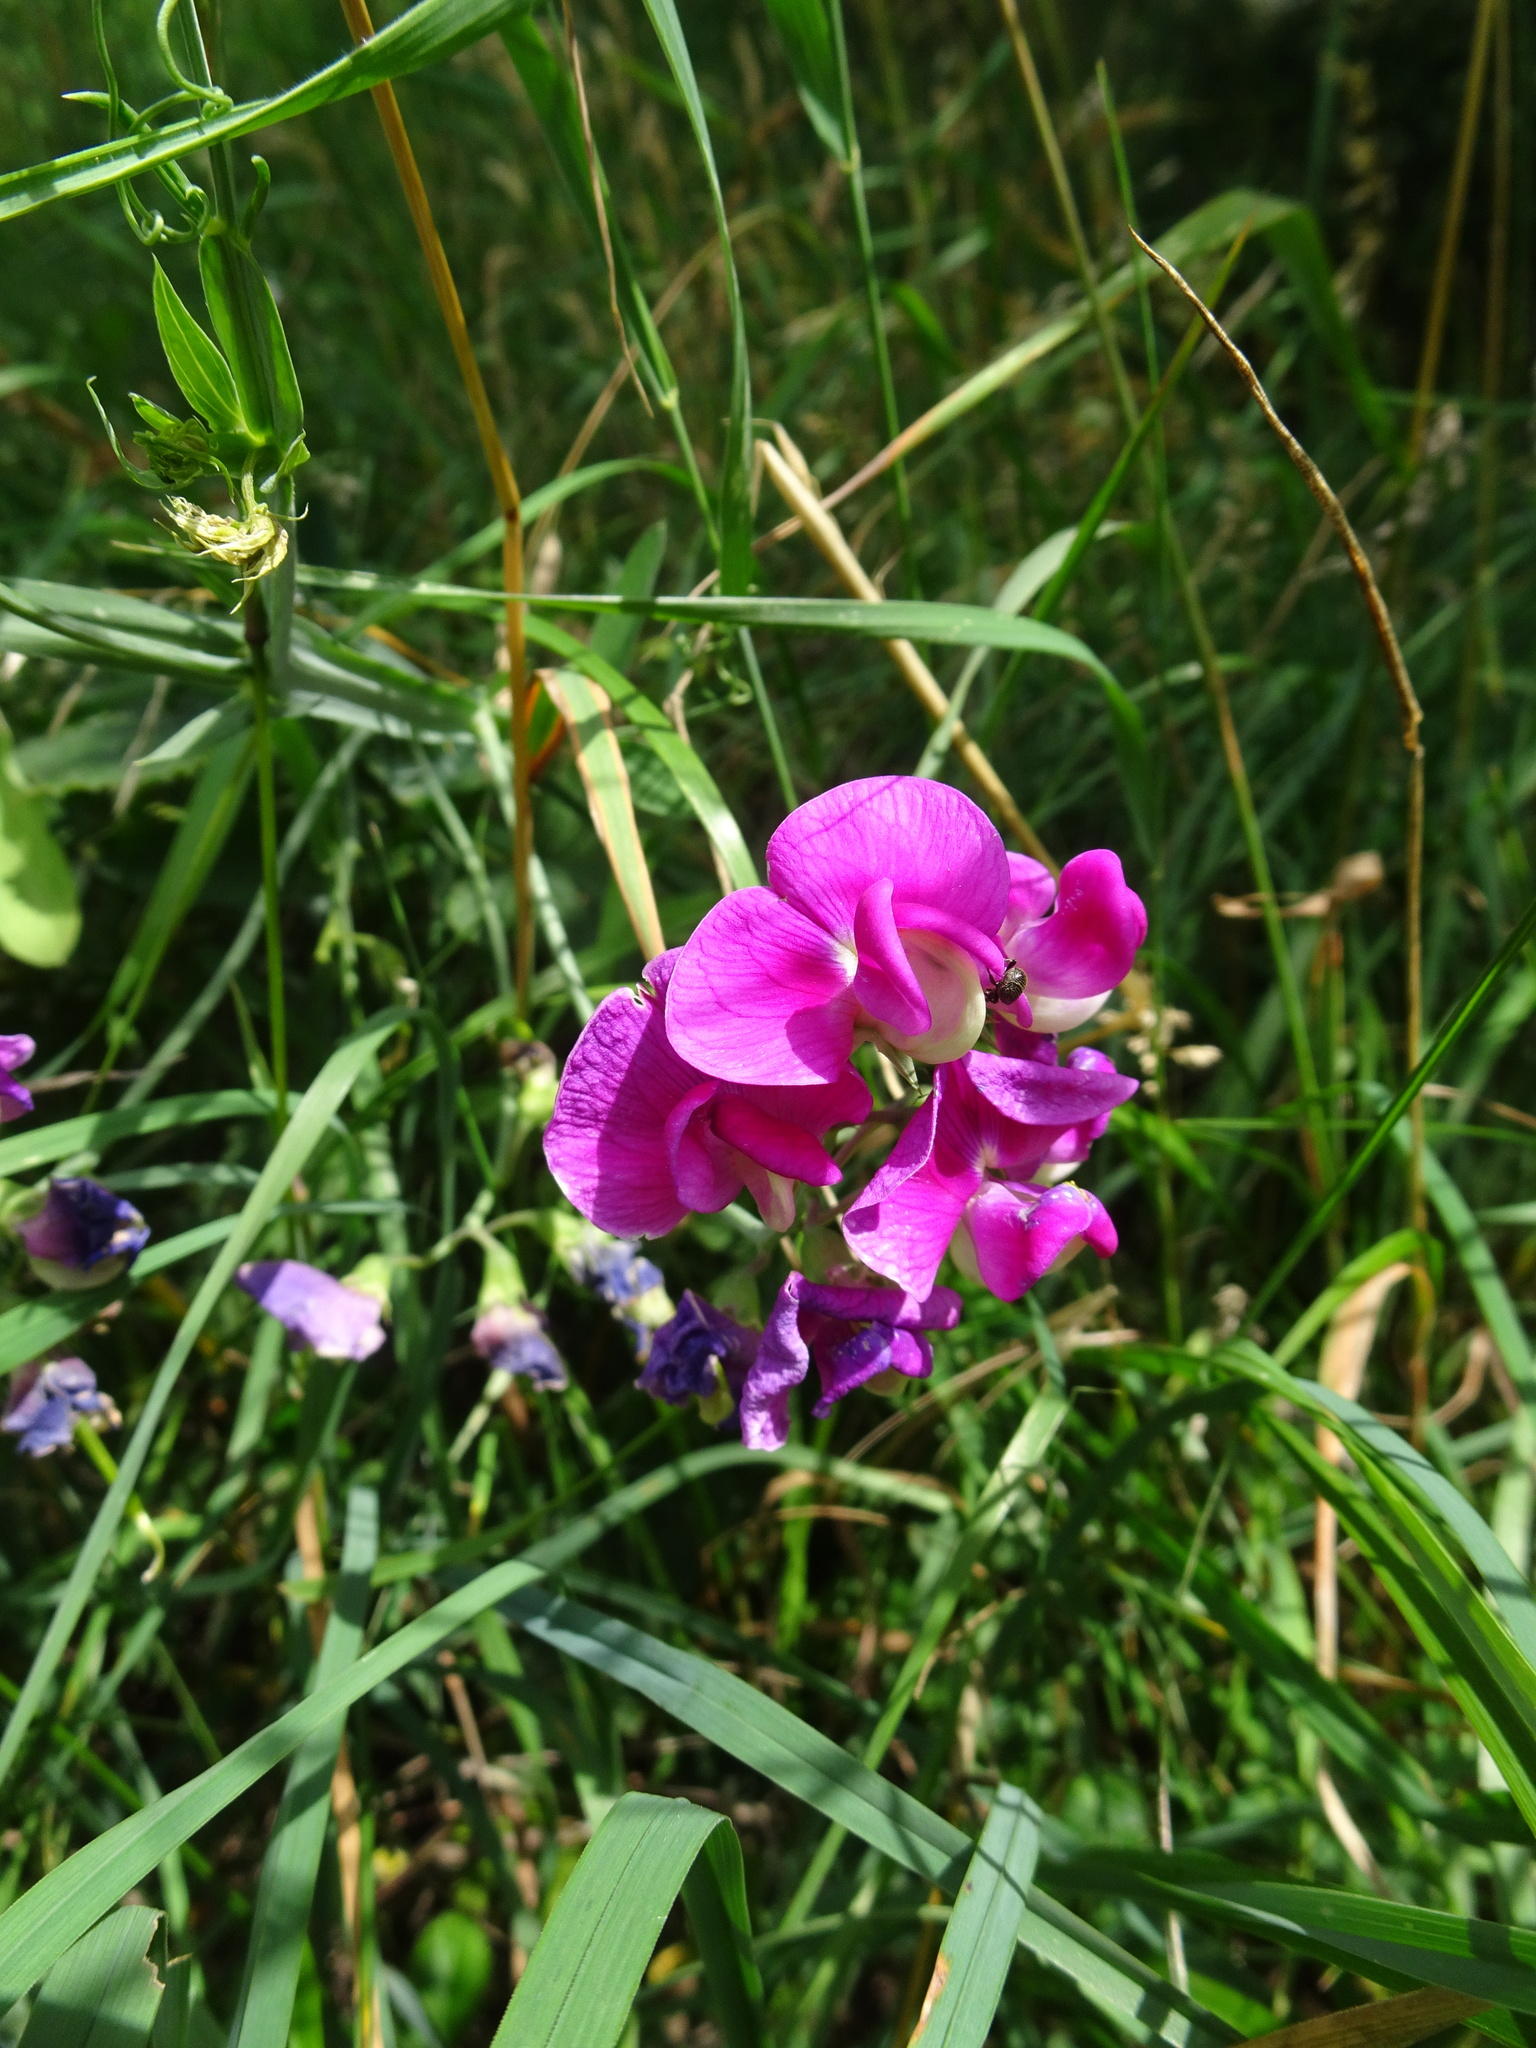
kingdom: Plantae
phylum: Tracheophyta
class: Magnoliopsida
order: Fabales
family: Fabaceae
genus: Lathyrus
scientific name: Lathyrus latifolius
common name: Perennial pea
